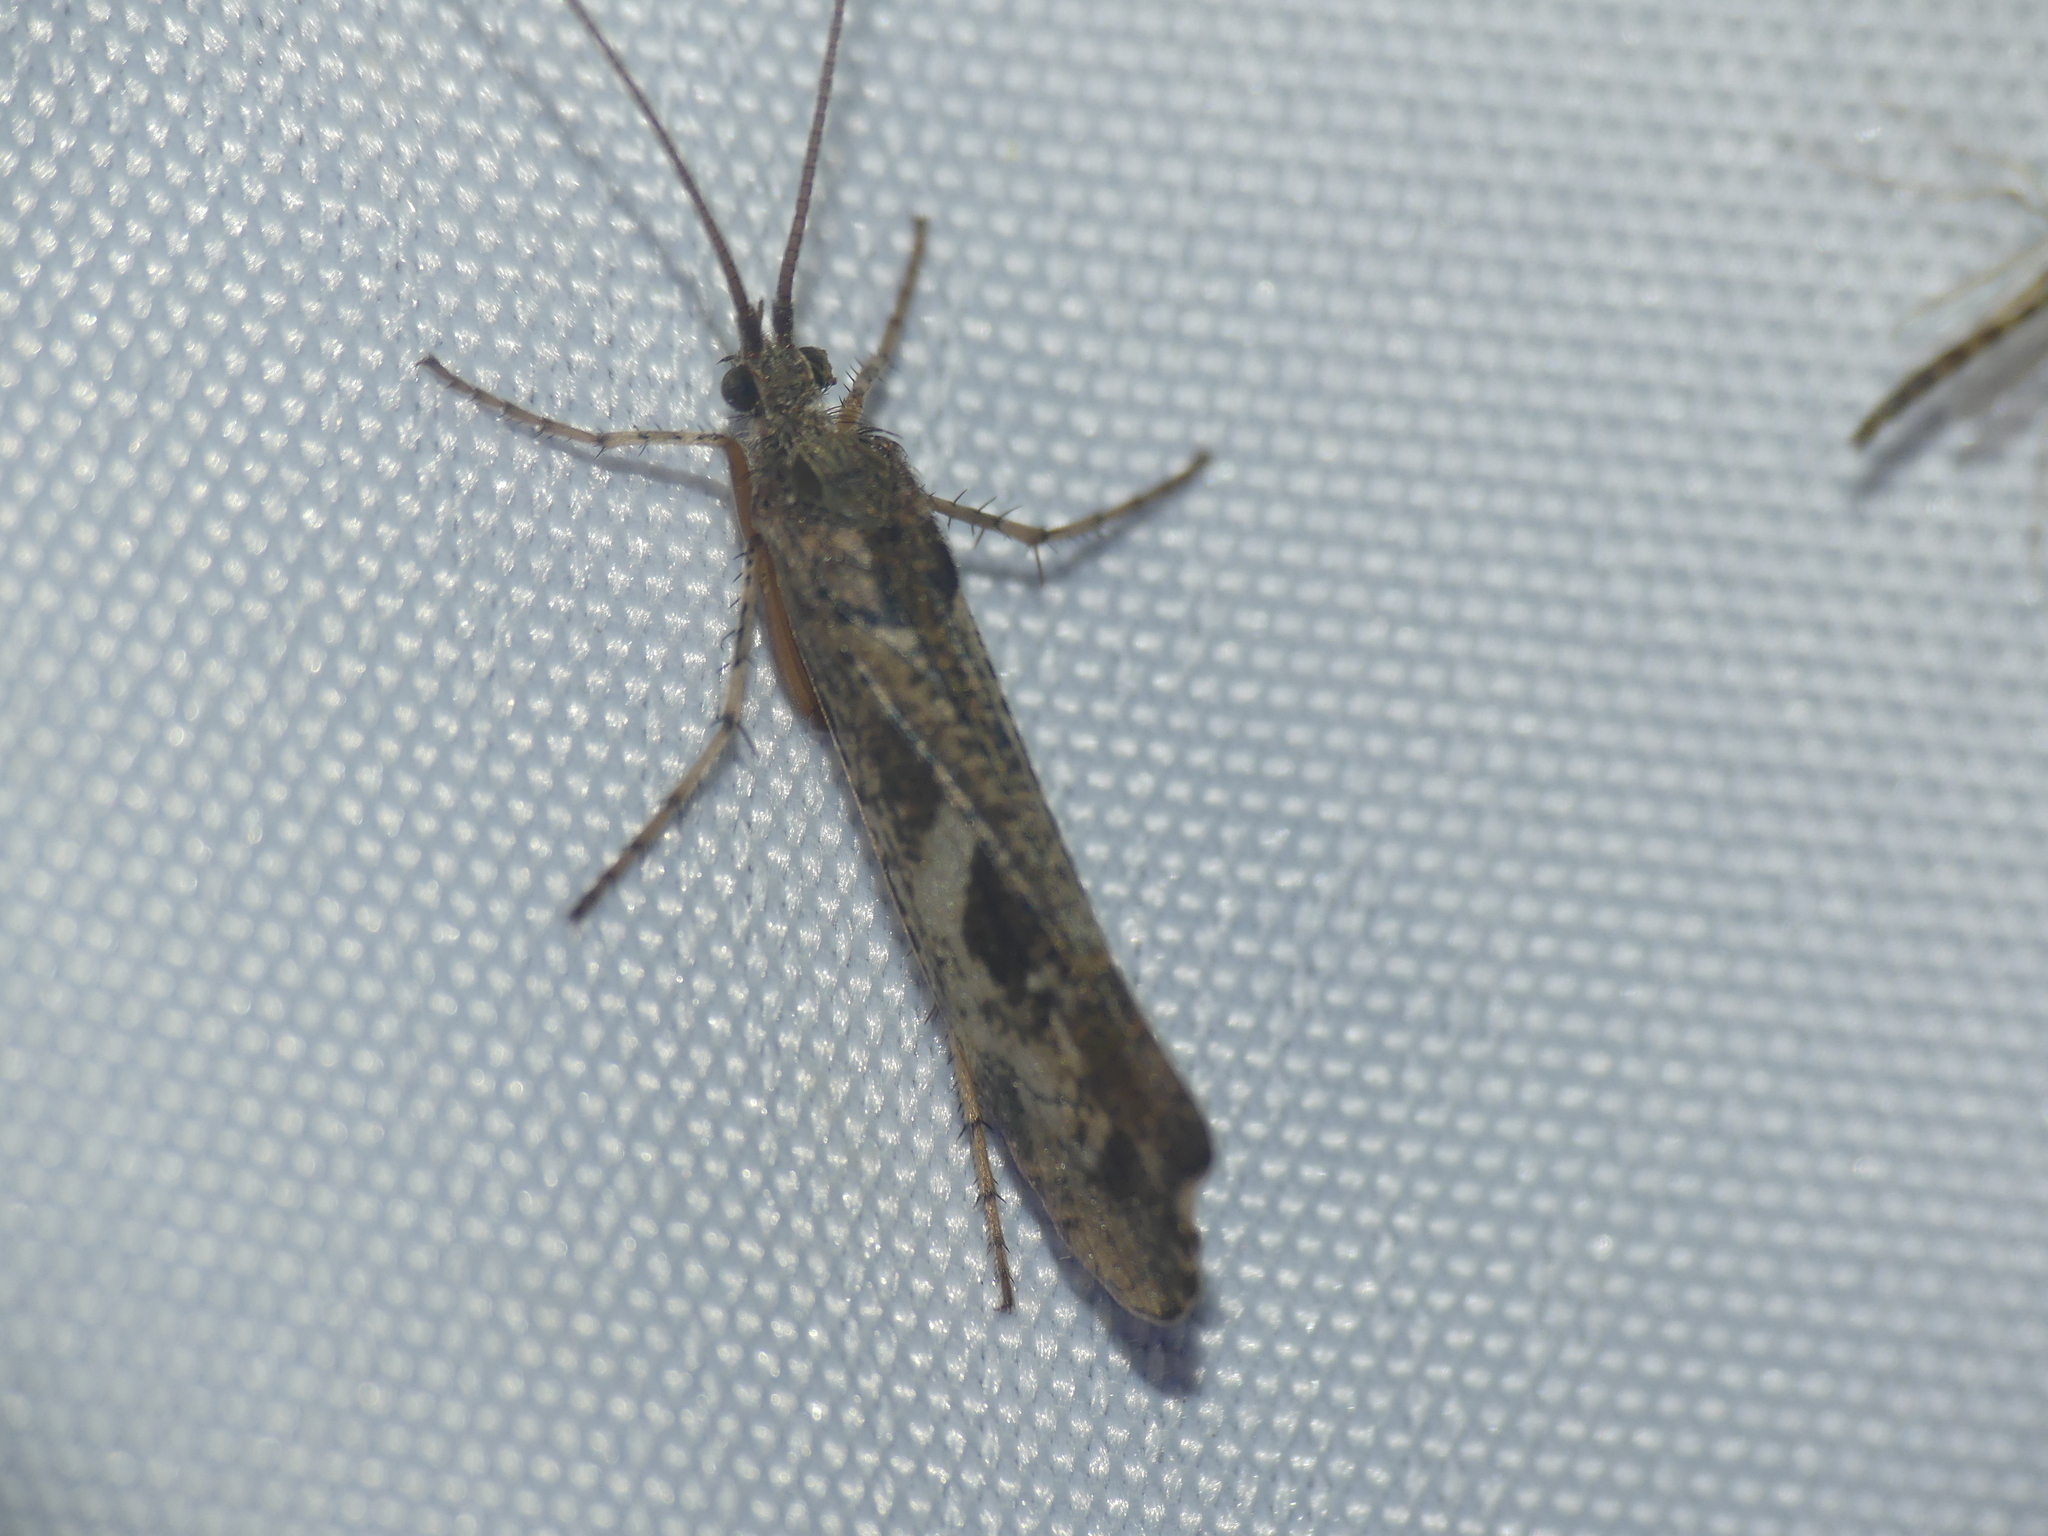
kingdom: Animalia
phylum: Arthropoda
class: Insecta
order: Trichoptera
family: Limnephilidae
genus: Glyphotaelius
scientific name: Glyphotaelius pellucidus
